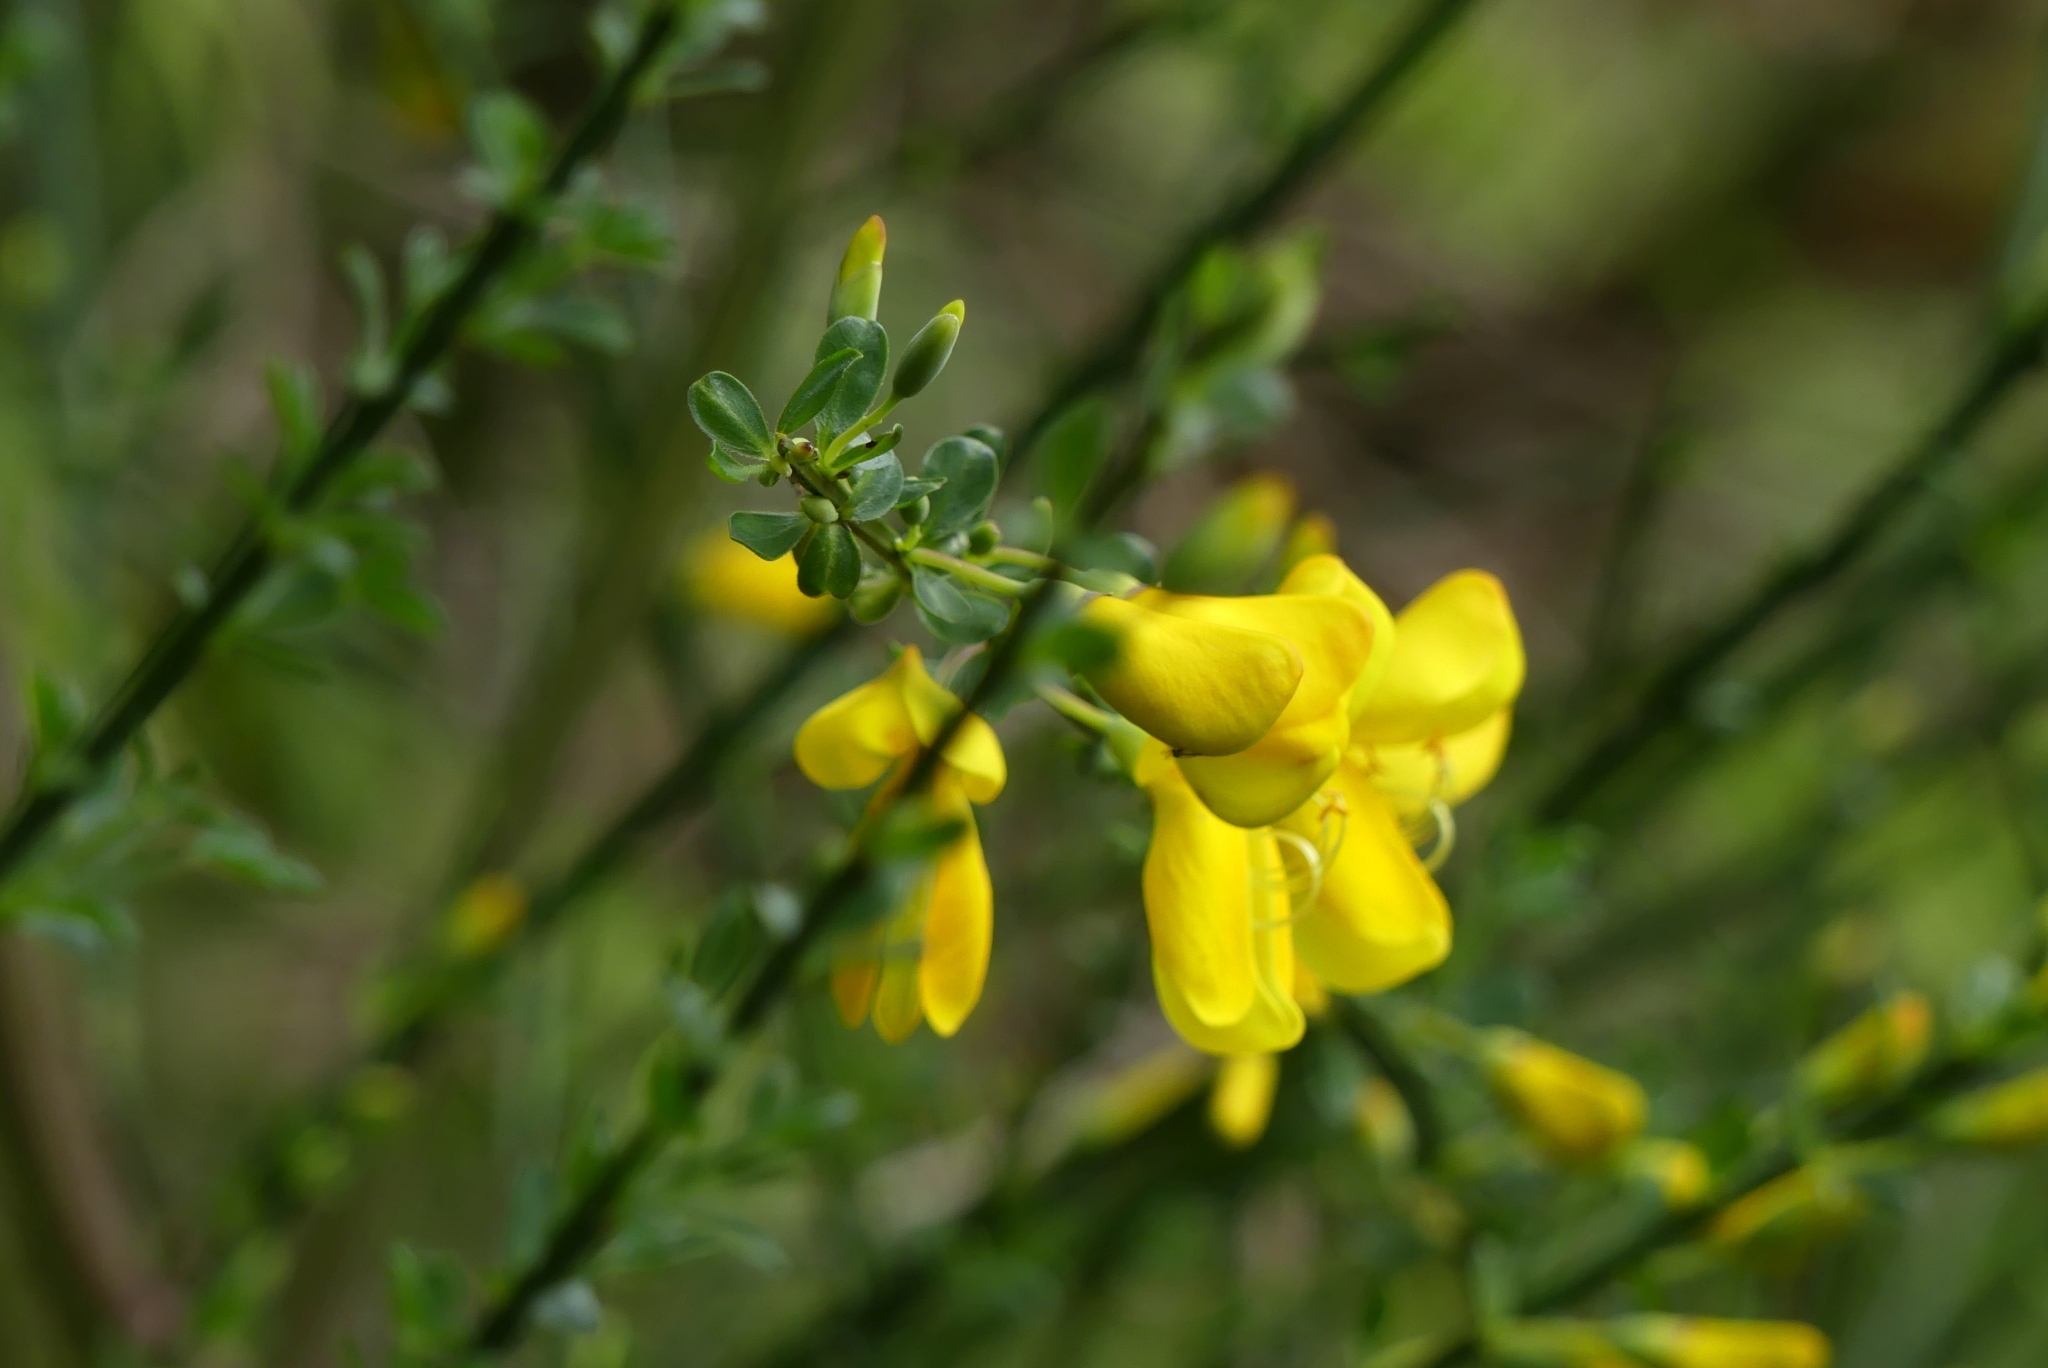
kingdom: Plantae
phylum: Tracheophyta
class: Magnoliopsida
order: Fabales
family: Fabaceae
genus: Cytisus
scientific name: Cytisus scoparius
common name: Scotch broom
